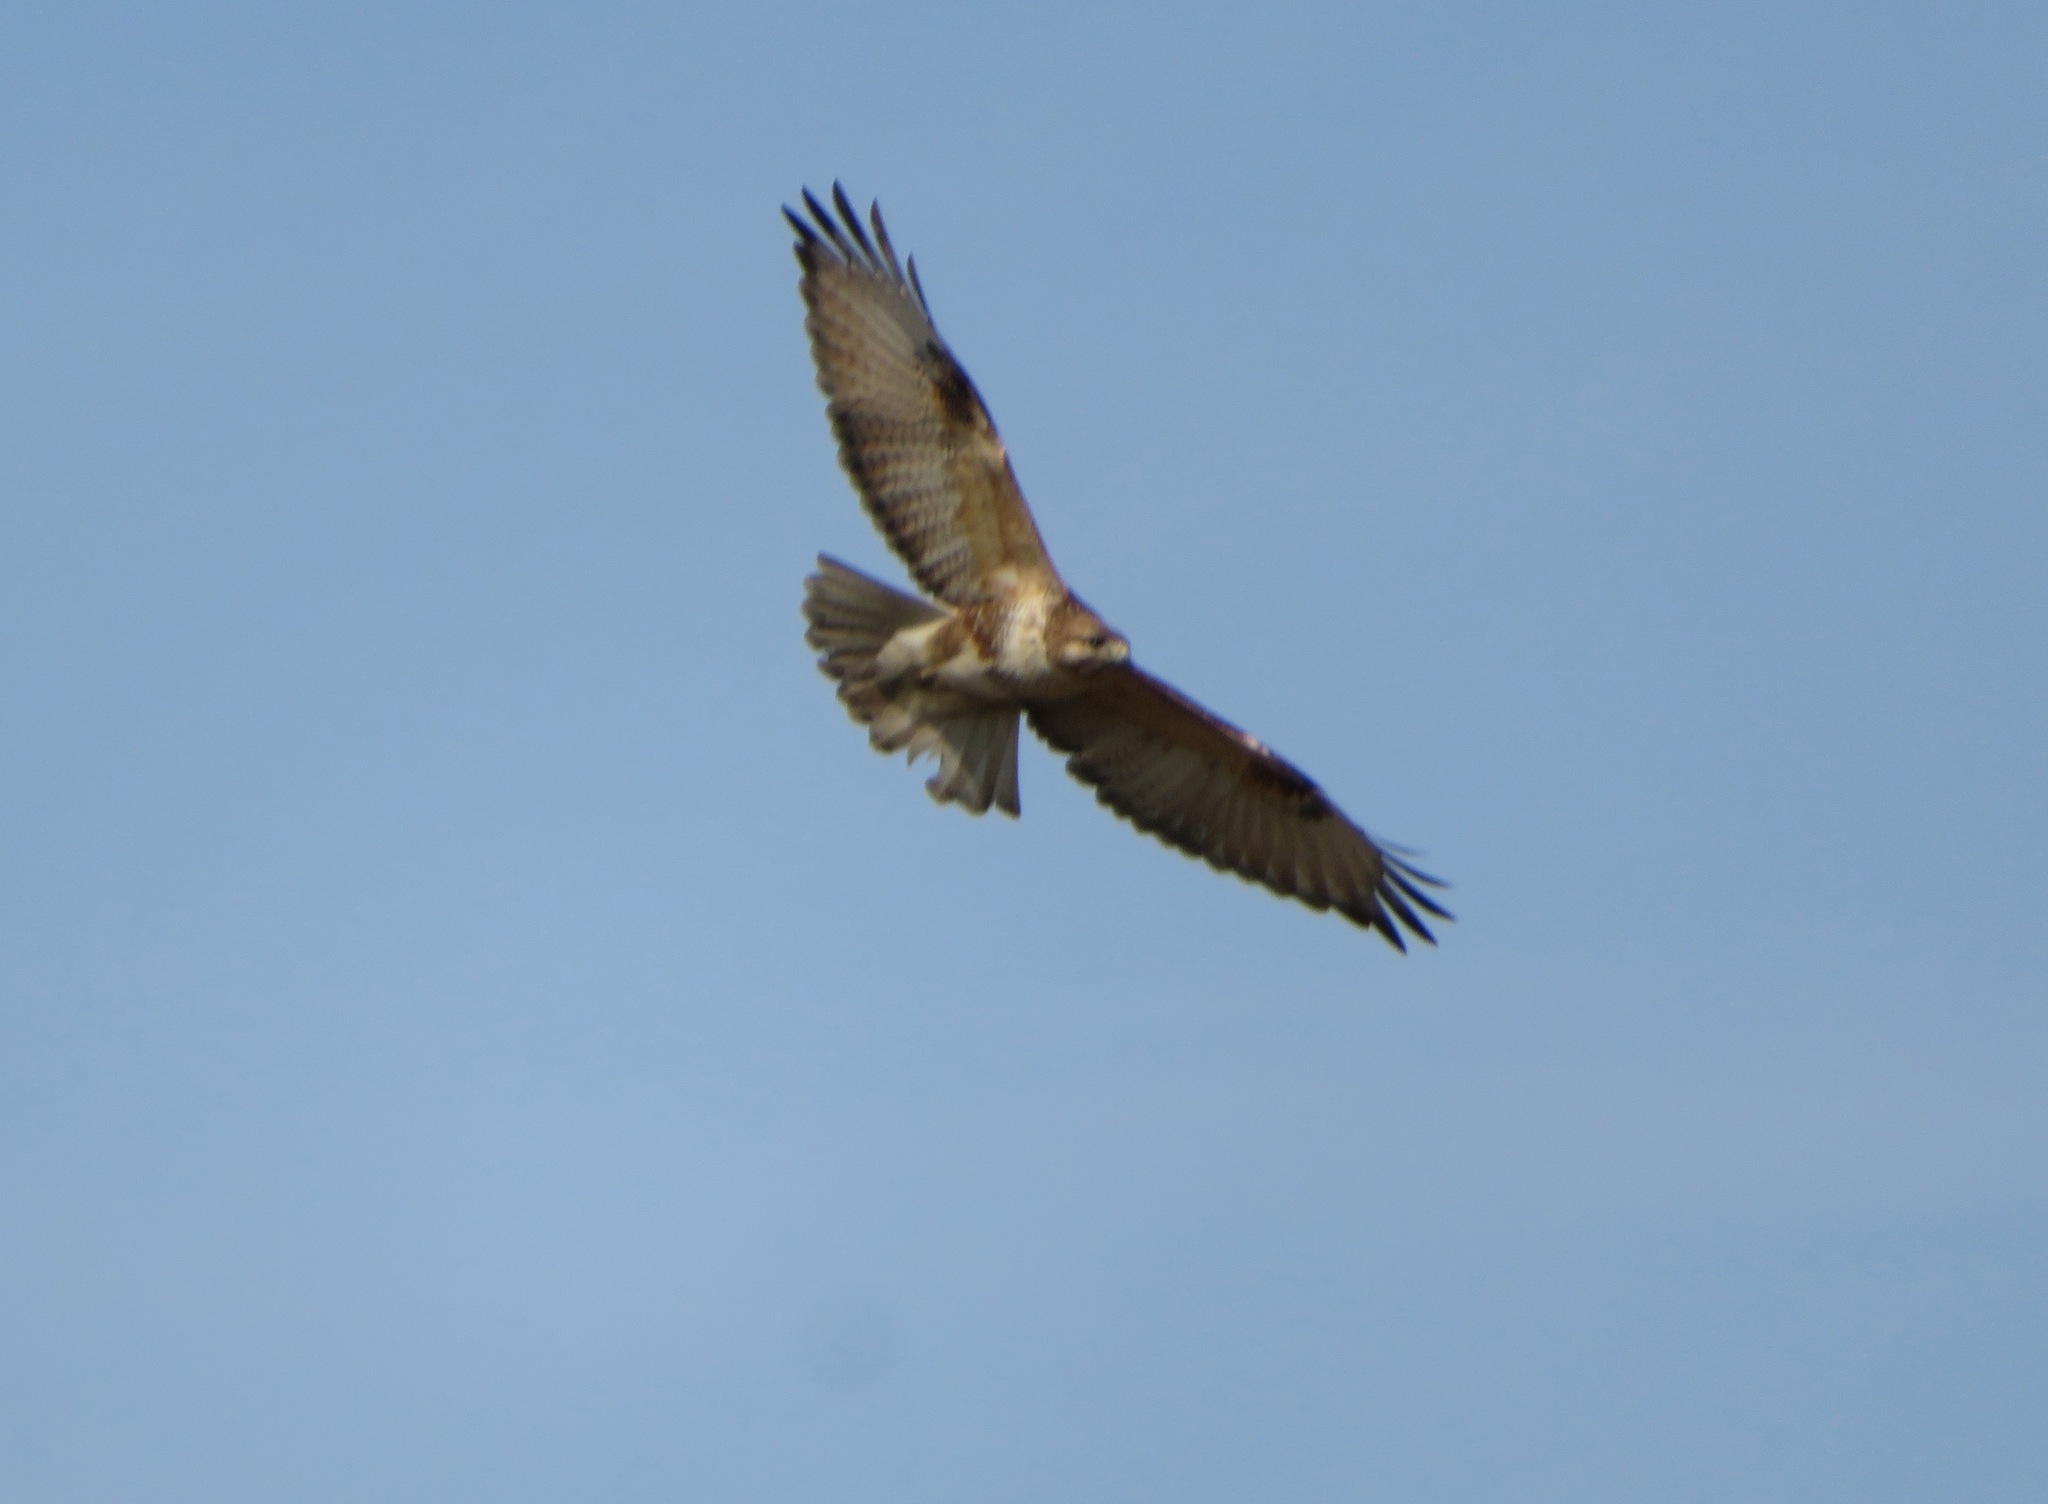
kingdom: Animalia
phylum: Chordata
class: Aves
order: Accipitriformes
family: Accipitridae
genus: Buteo
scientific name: Buteo japonicus
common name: Eastern buzzard
